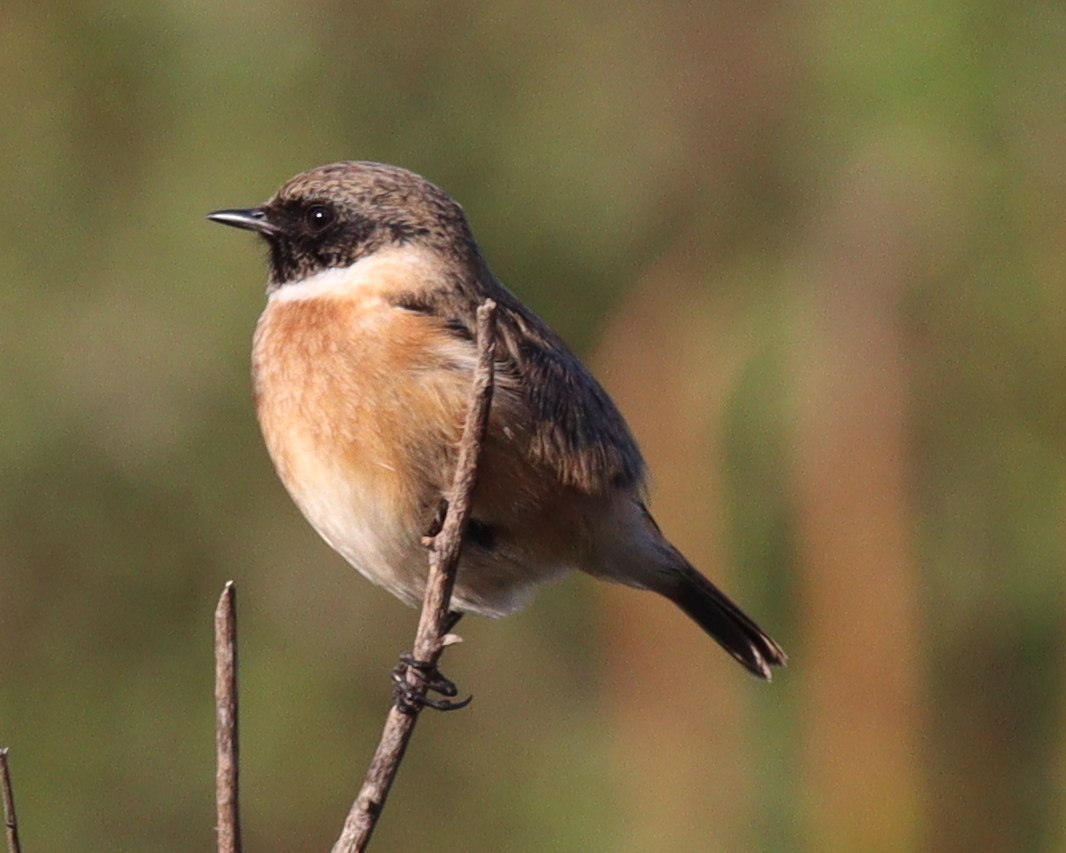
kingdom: Animalia
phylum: Chordata
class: Aves
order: Passeriformes
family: Muscicapidae
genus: Saxicola
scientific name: Saxicola rubicola
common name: European stonechat
